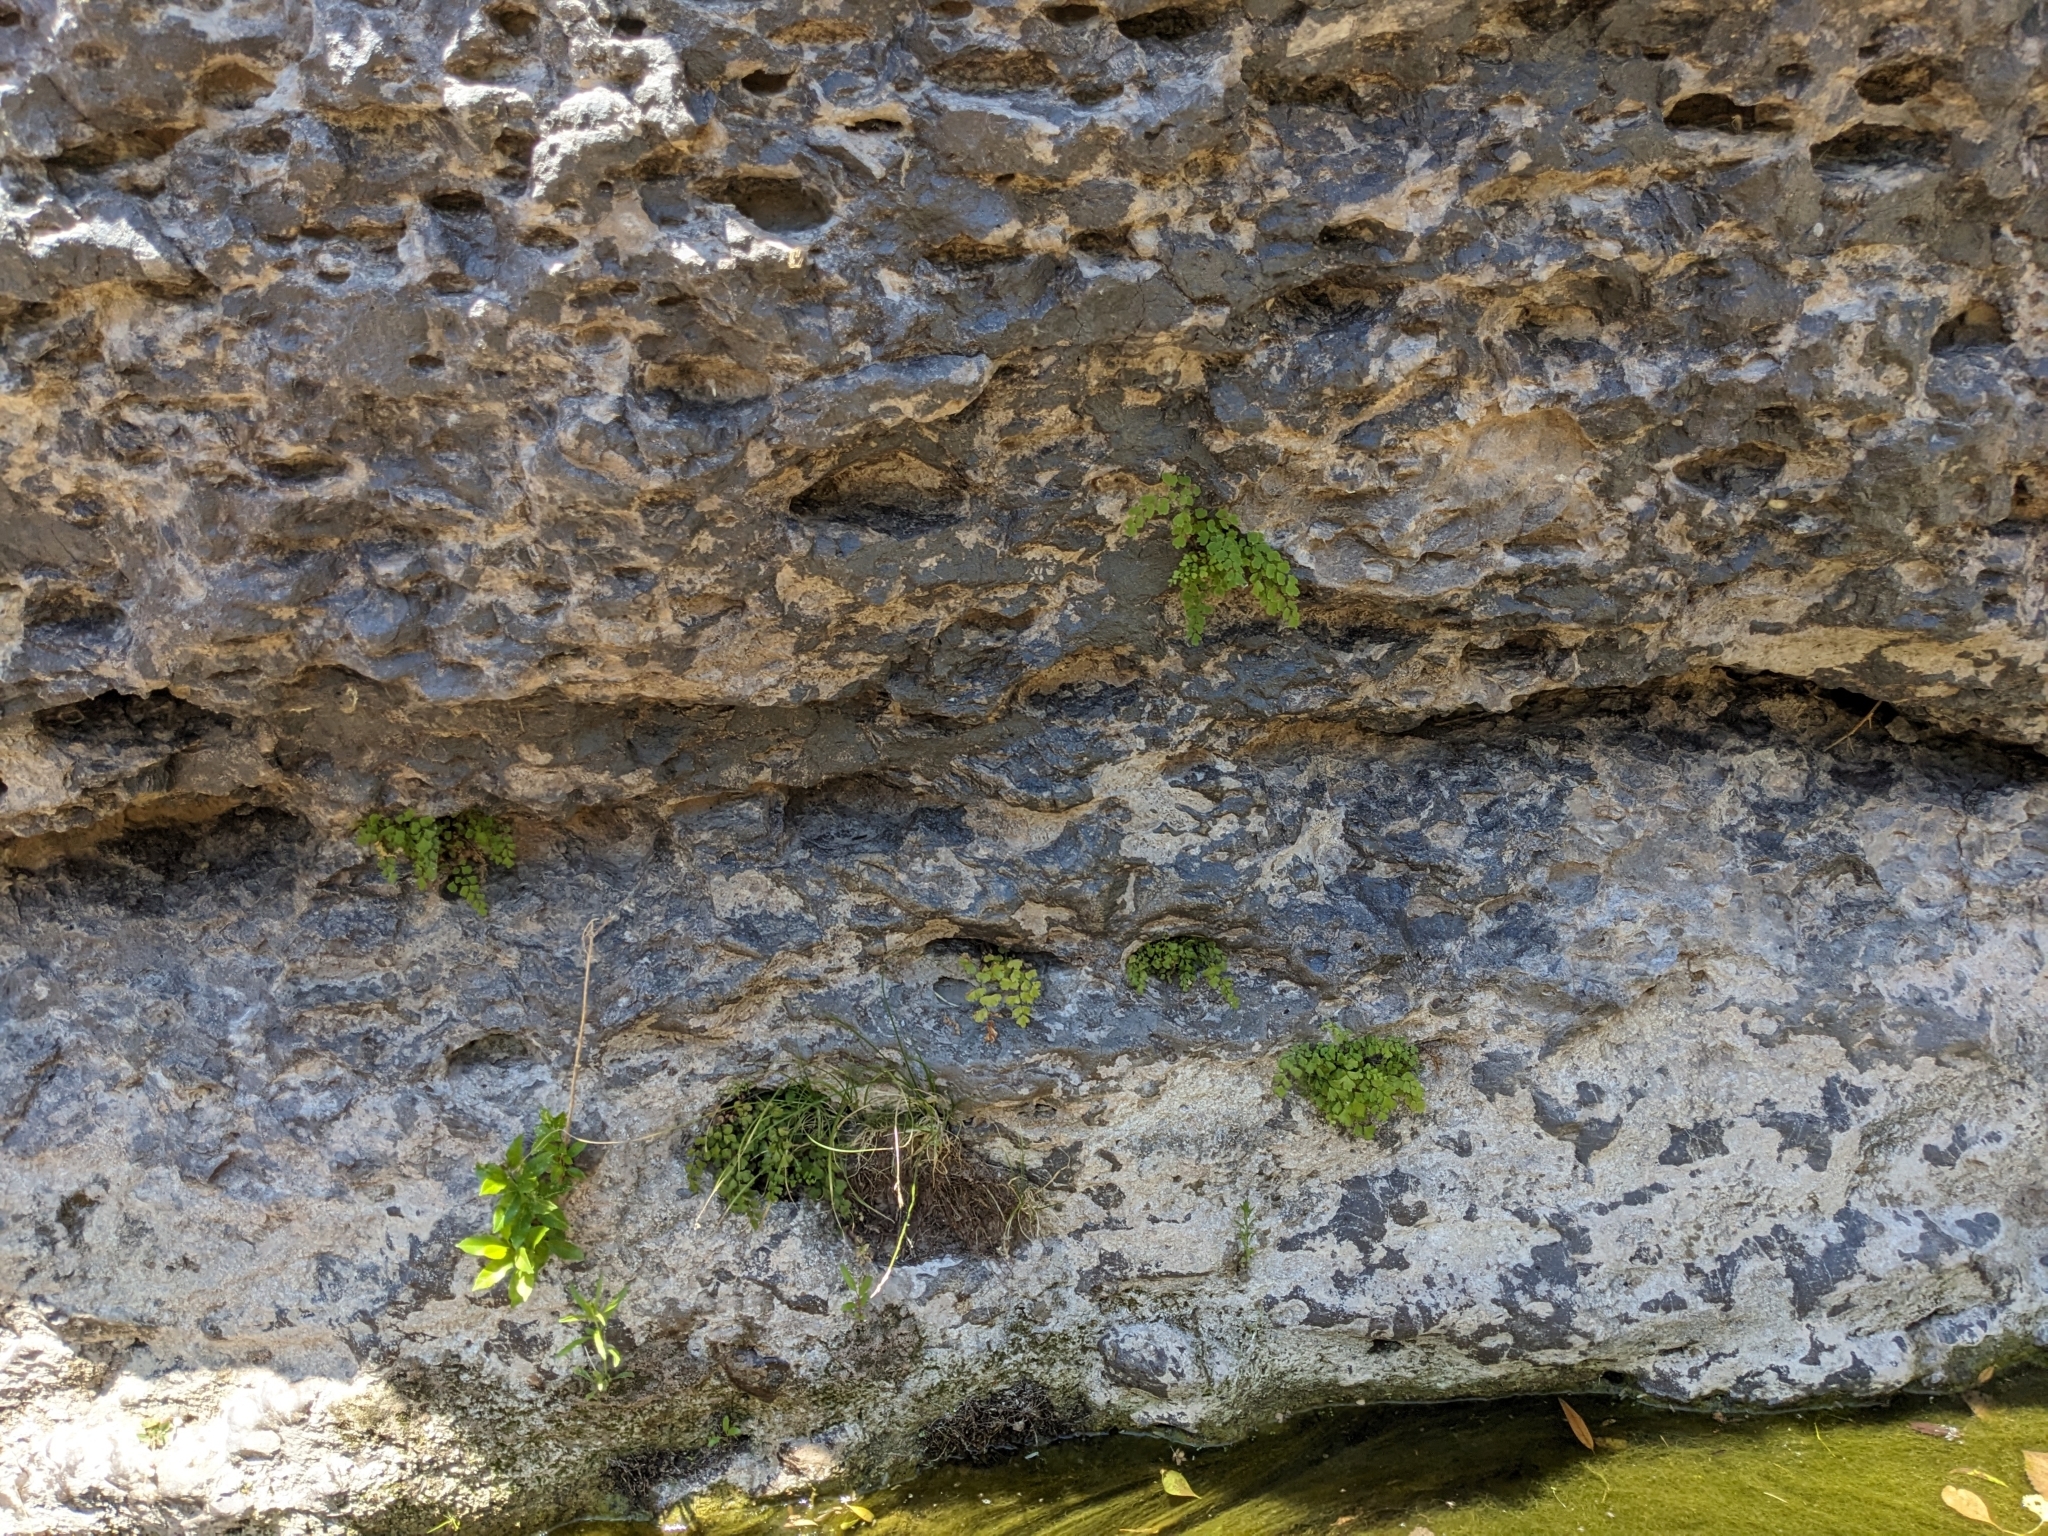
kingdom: Plantae
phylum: Tracheophyta
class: Polypodiopsida
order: Polypodiales
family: Pteridaceae
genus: Adiantum
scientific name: Adiantum capillus-veneris
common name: Maidenhair fern
